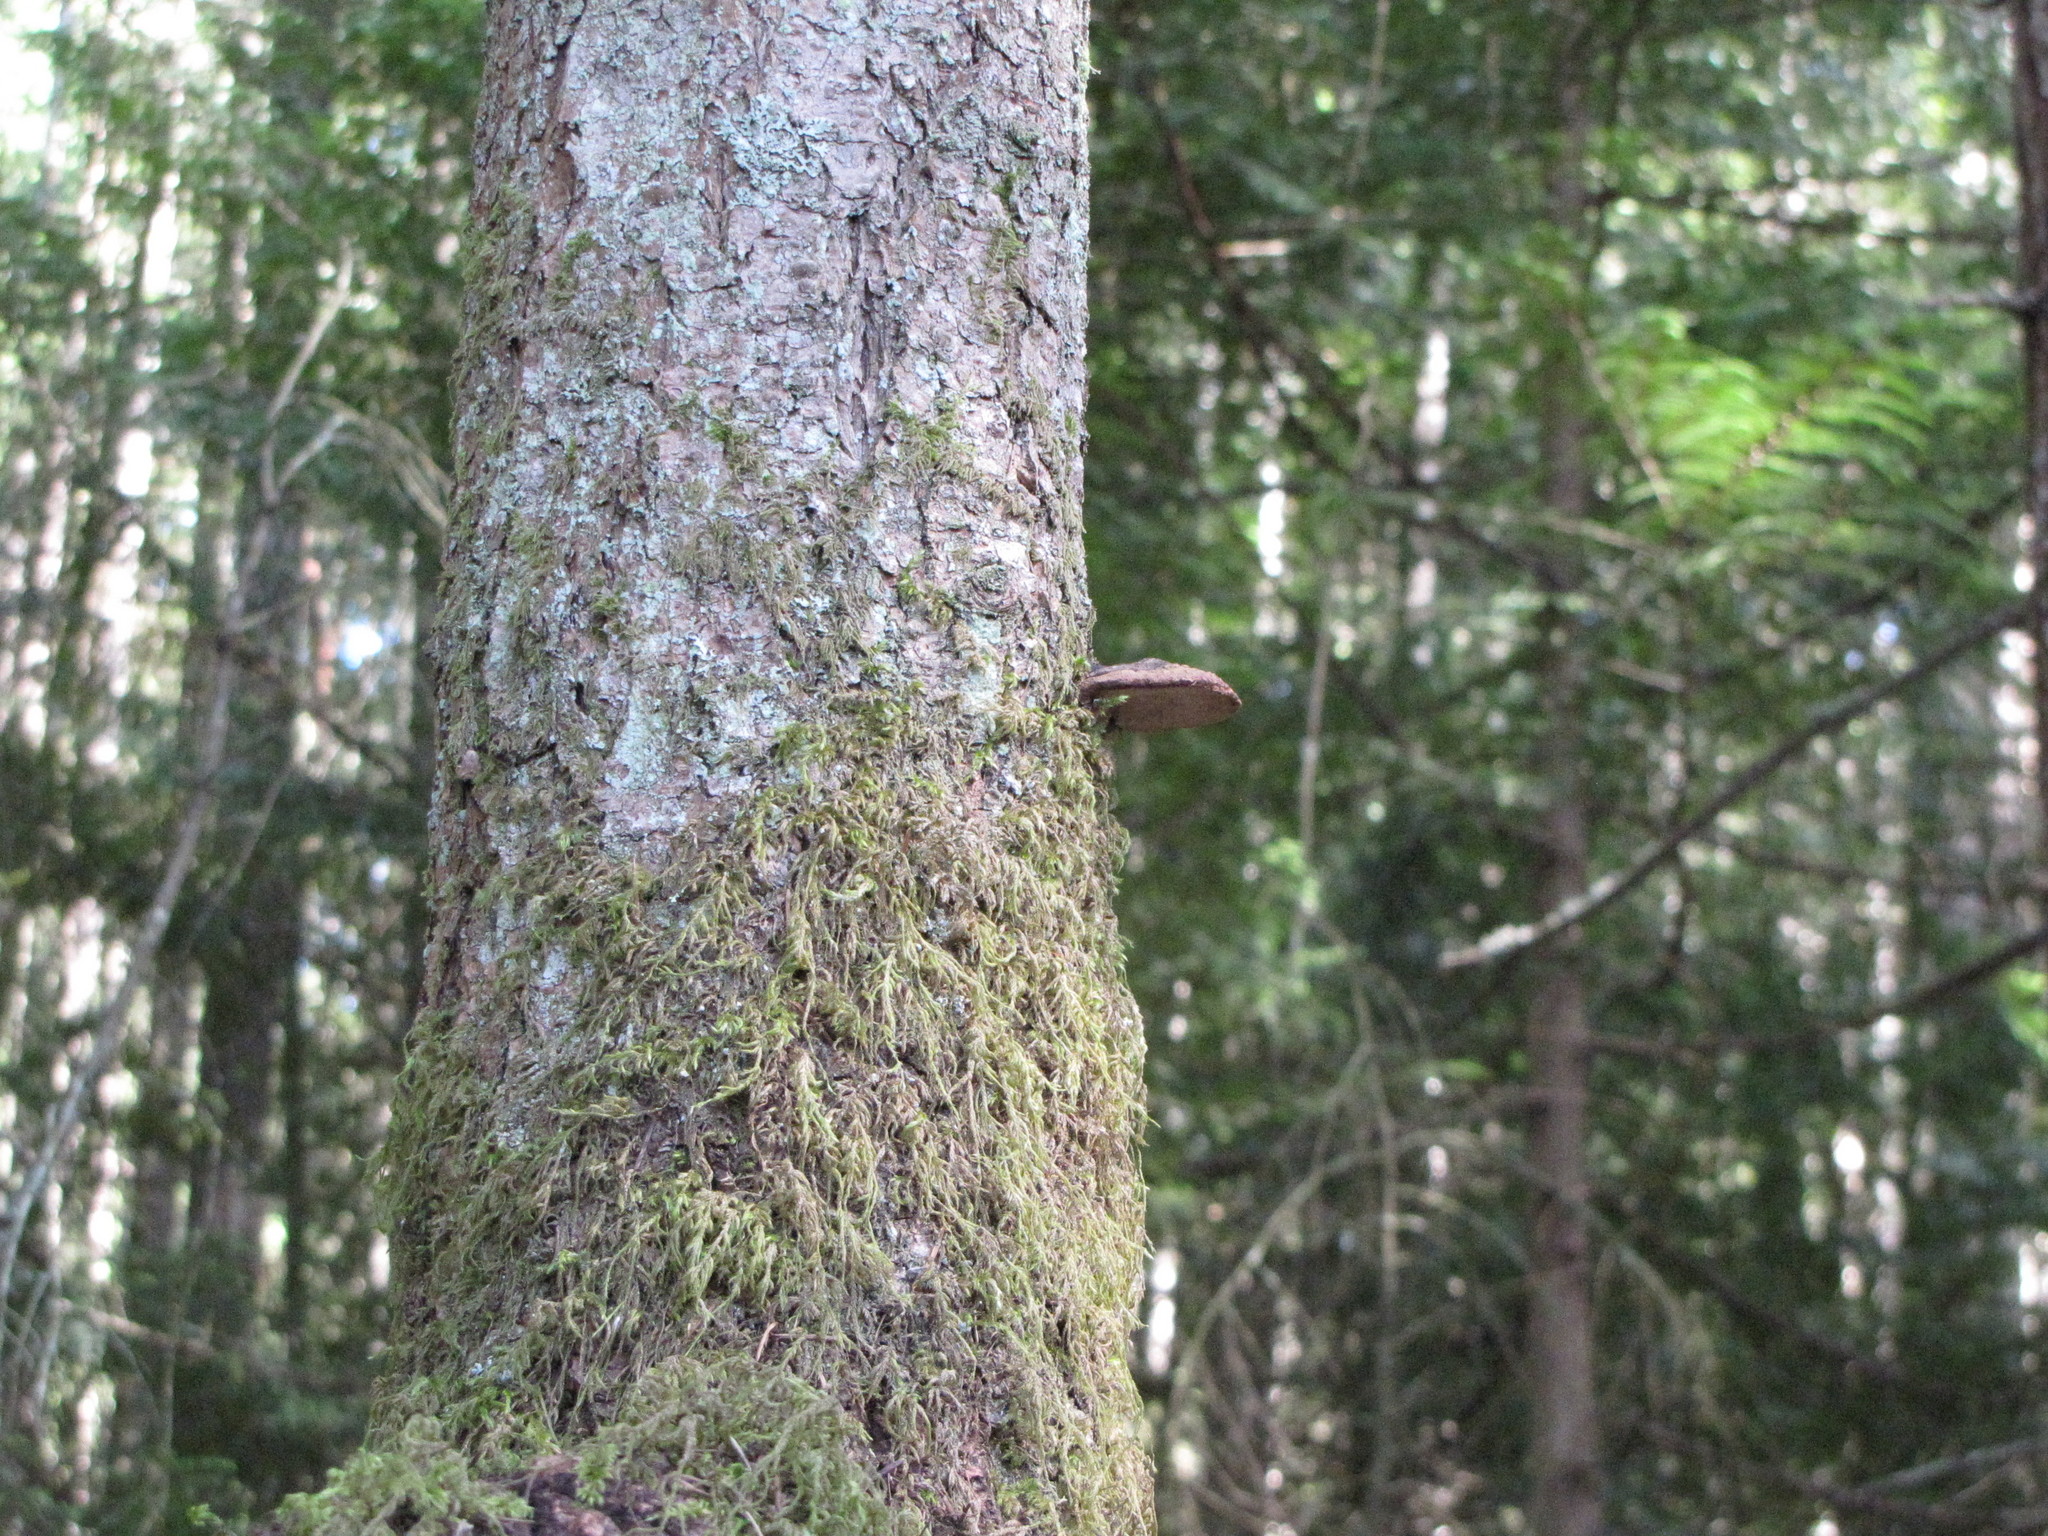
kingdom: Plantae
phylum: Bryophyta
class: Bryopsida
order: Hypnales
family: Lembophyllaceae
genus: Pseudisothecium
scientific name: Pseudisothecium stoloniferum
